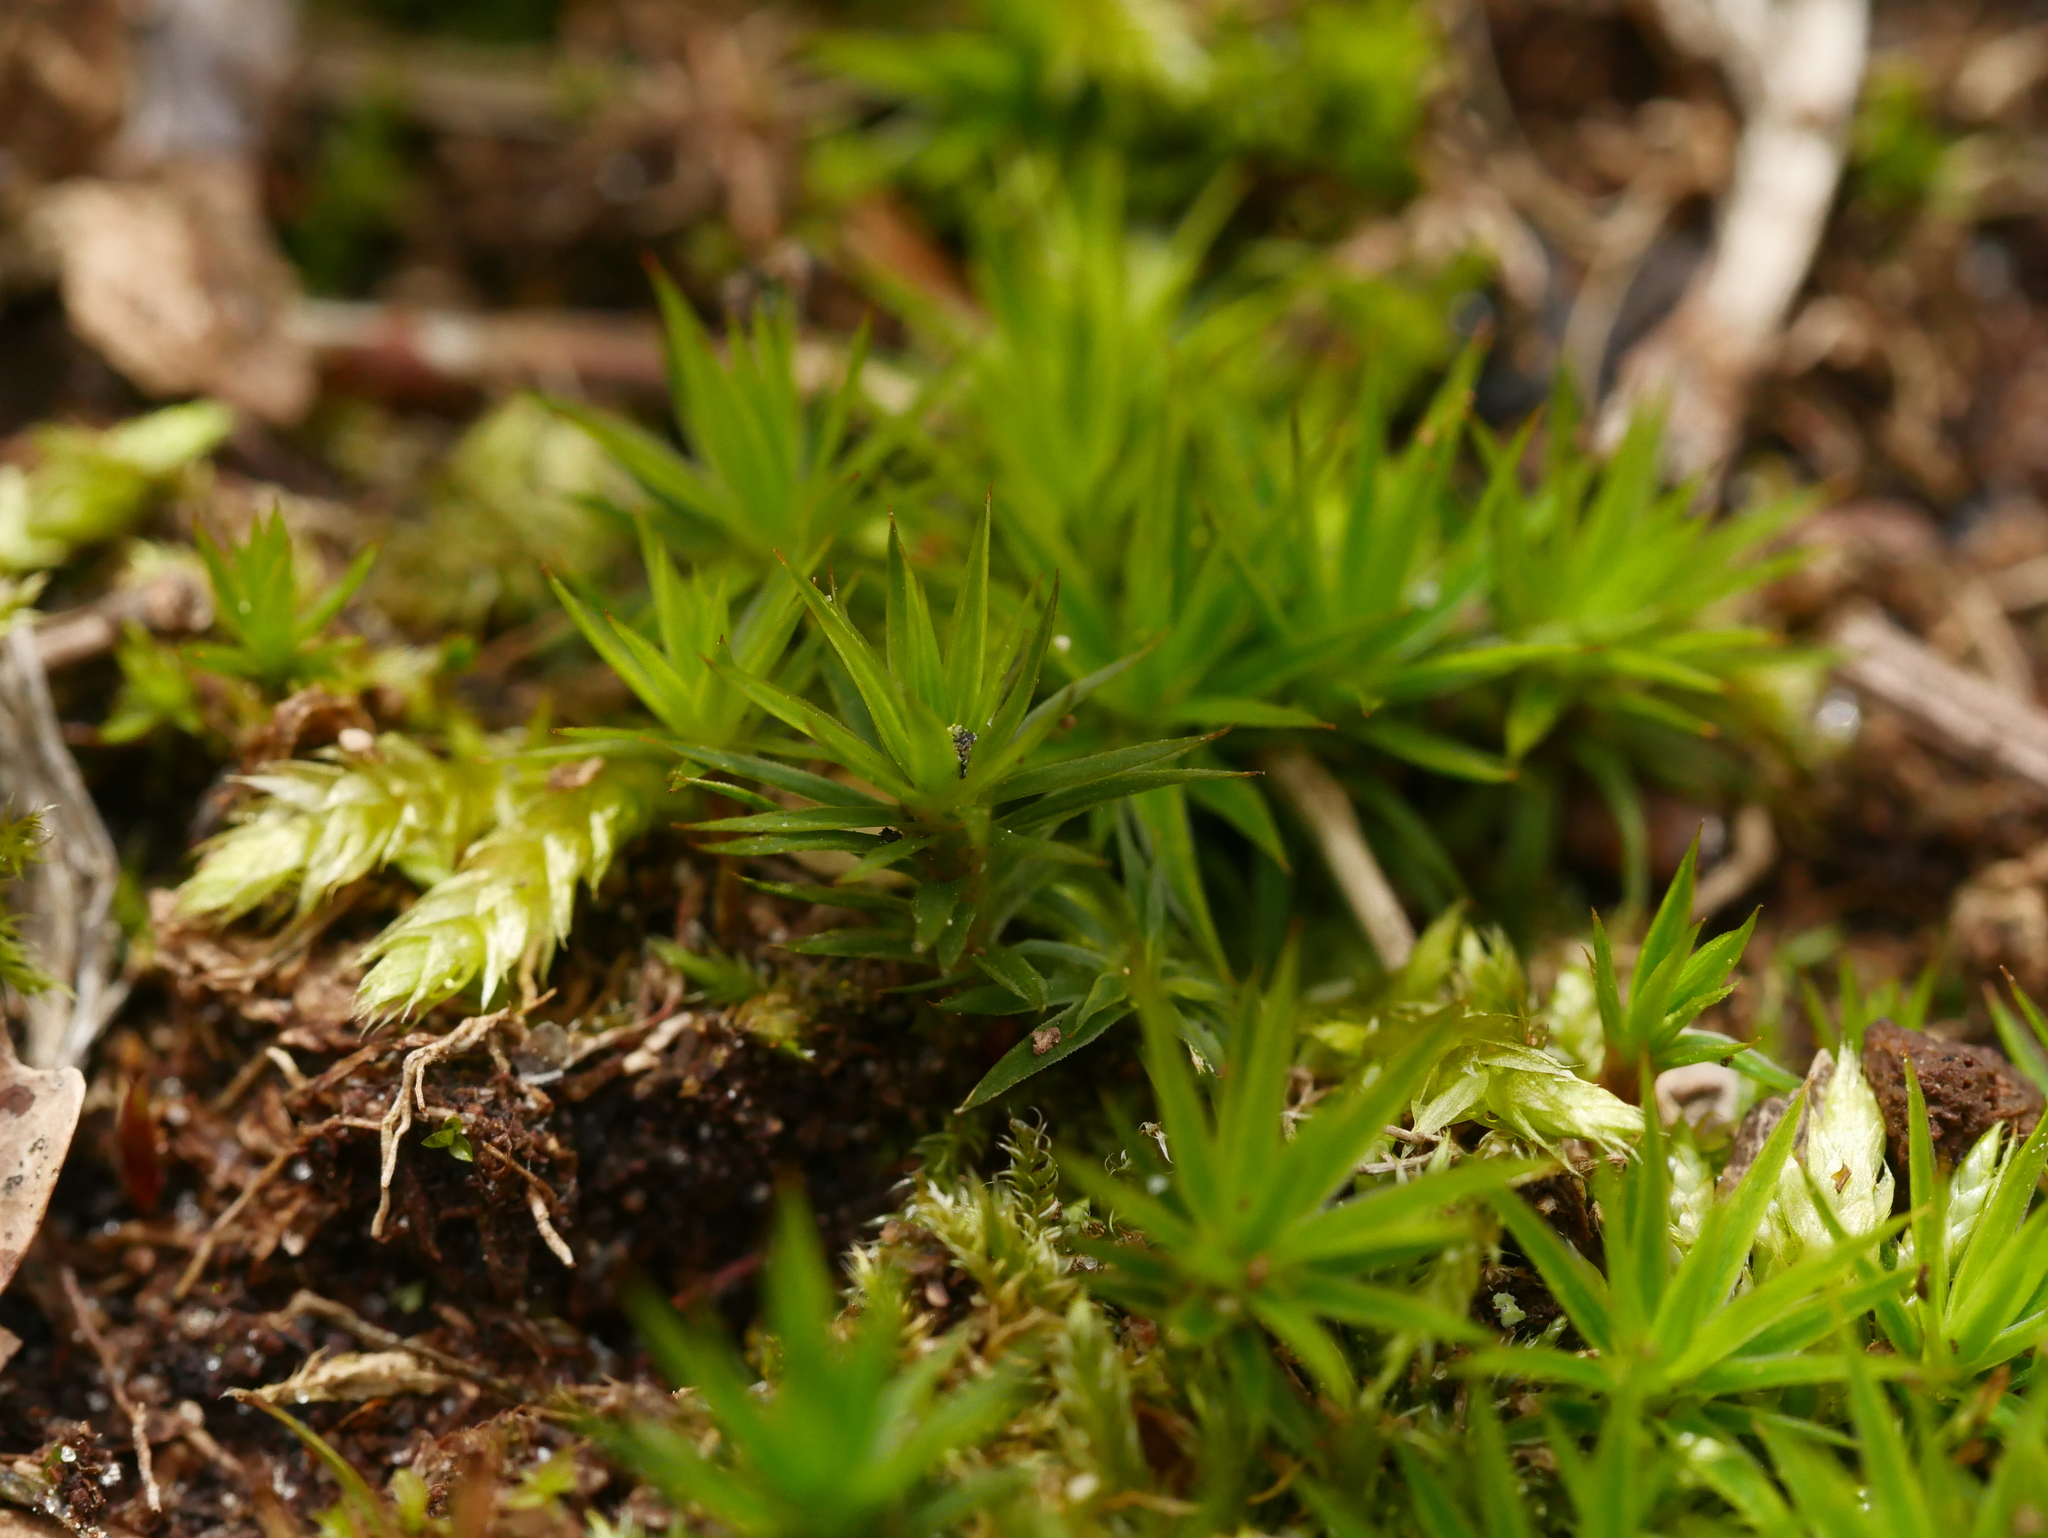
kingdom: Plantae
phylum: Bryophyta
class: Polytrichopsida
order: Polytrichales
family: Polytrichaceae
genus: Polytrichum
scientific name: Polytrichum formosum
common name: Bank haircap moss
